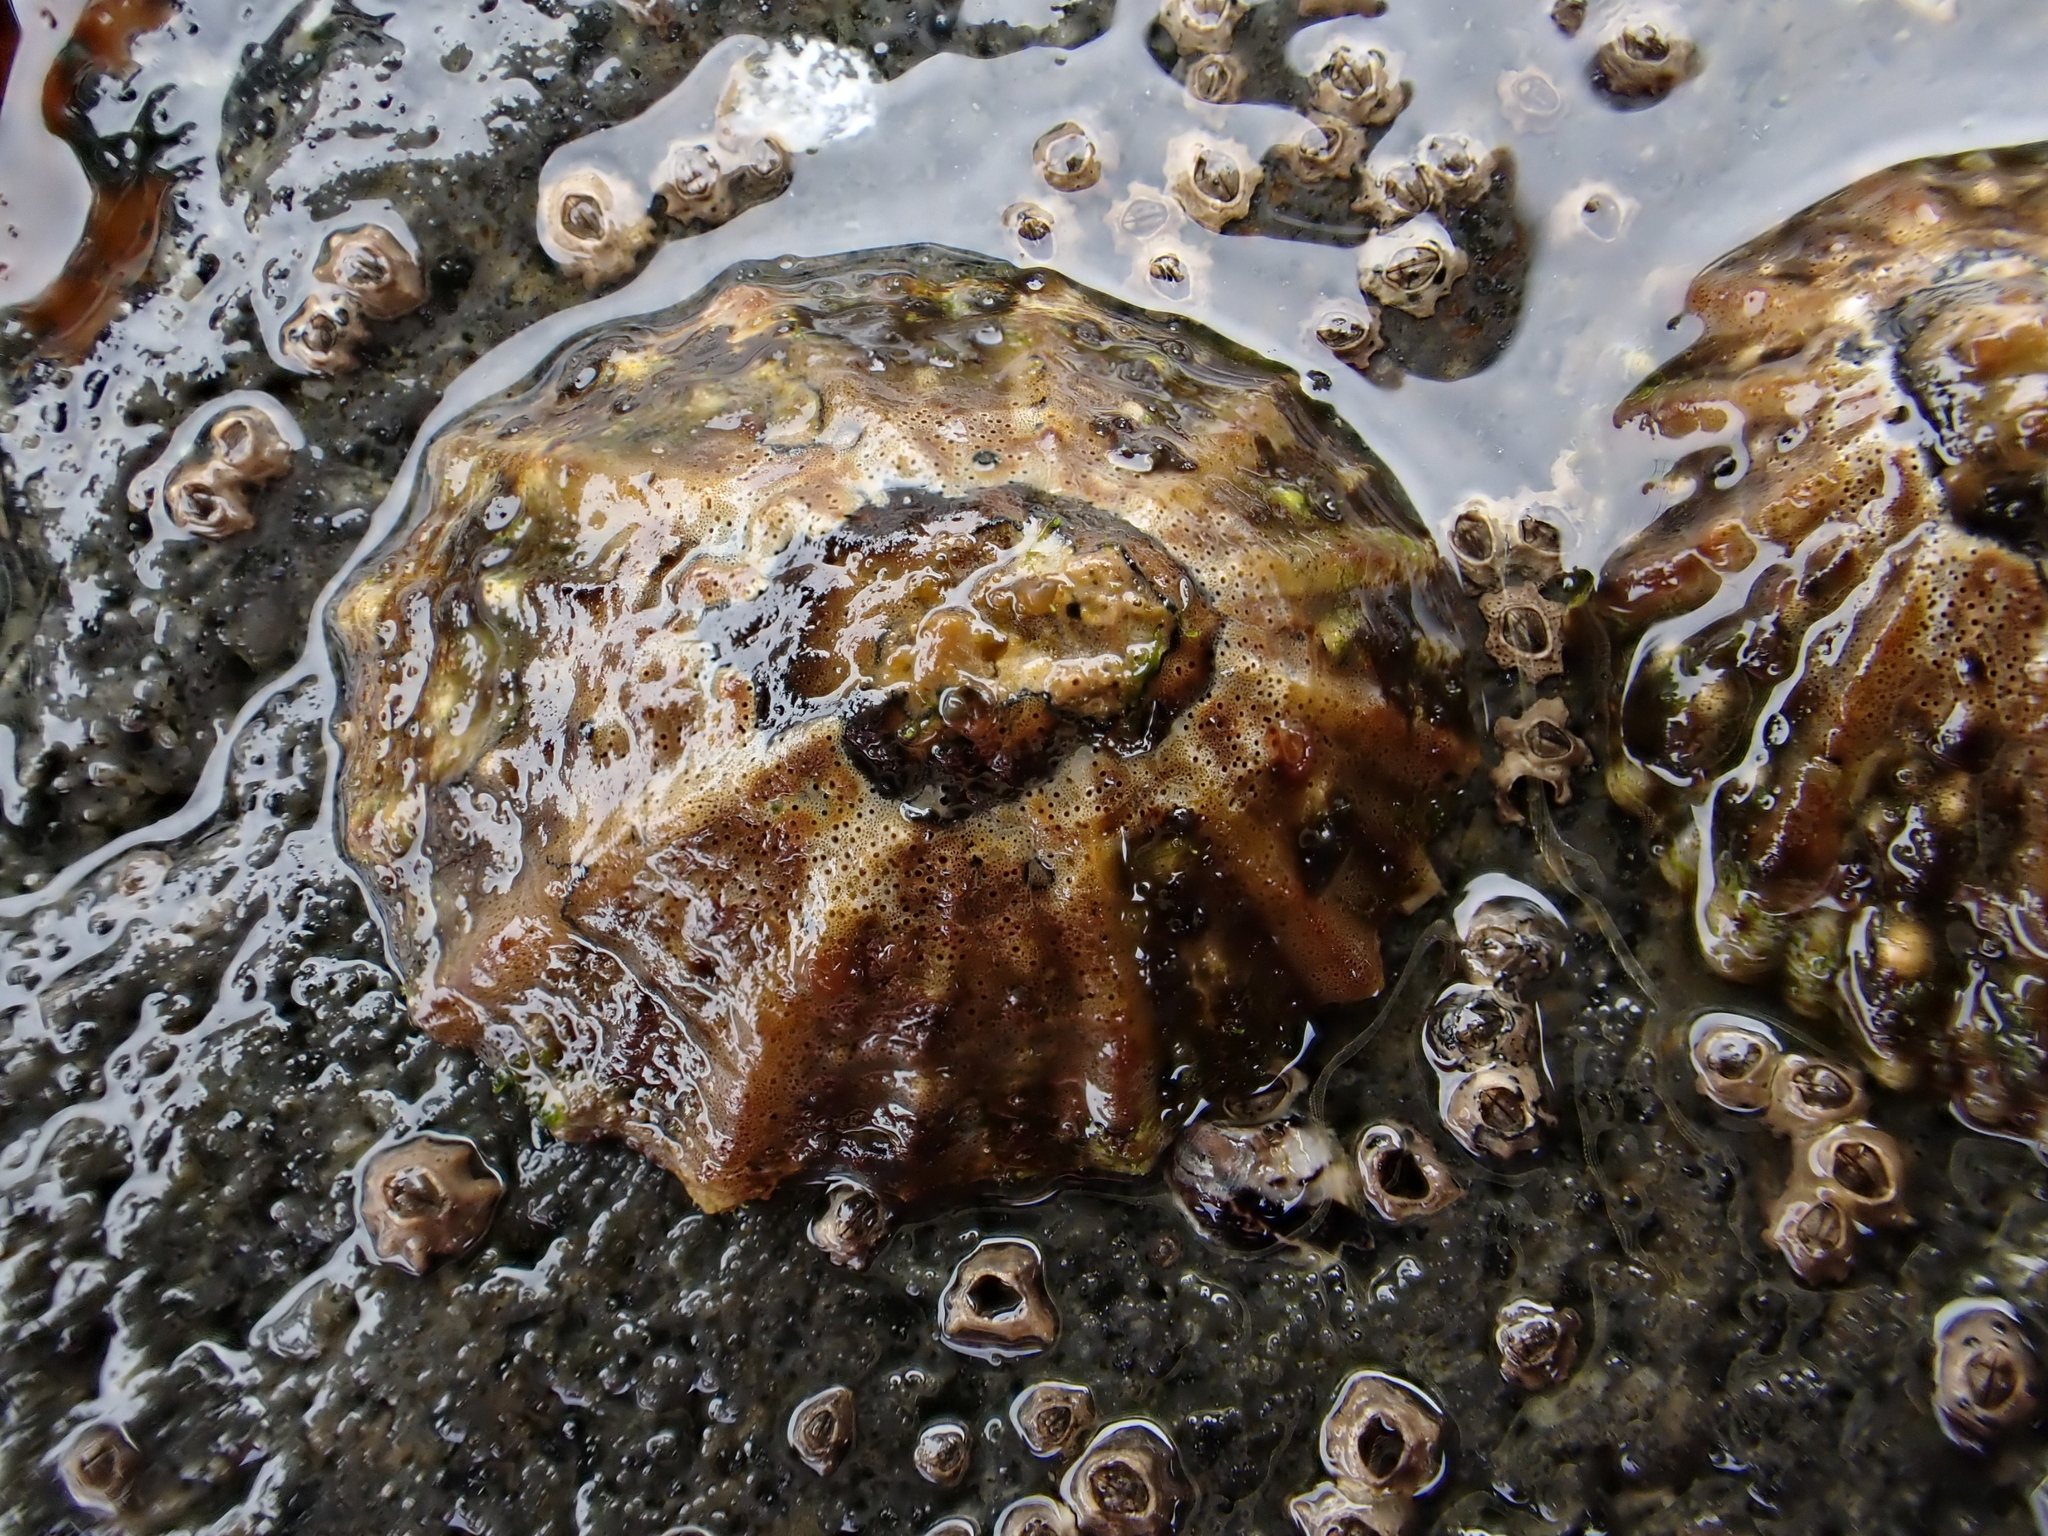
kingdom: Animalia
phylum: Mollusca
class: Gastropoda
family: Nacellidae
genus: Cellana
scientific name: Cellana ornata
